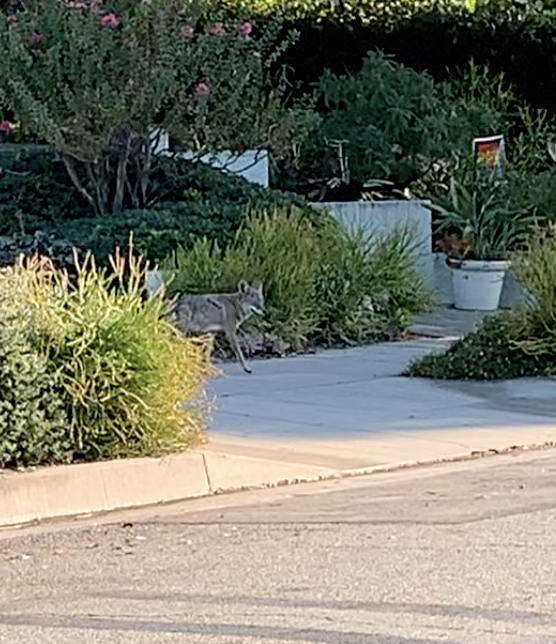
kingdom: Animalia
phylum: Chordata
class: Mammalia
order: Carnivora
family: Canidae
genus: Canis
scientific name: Canis latrans
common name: Coyote
